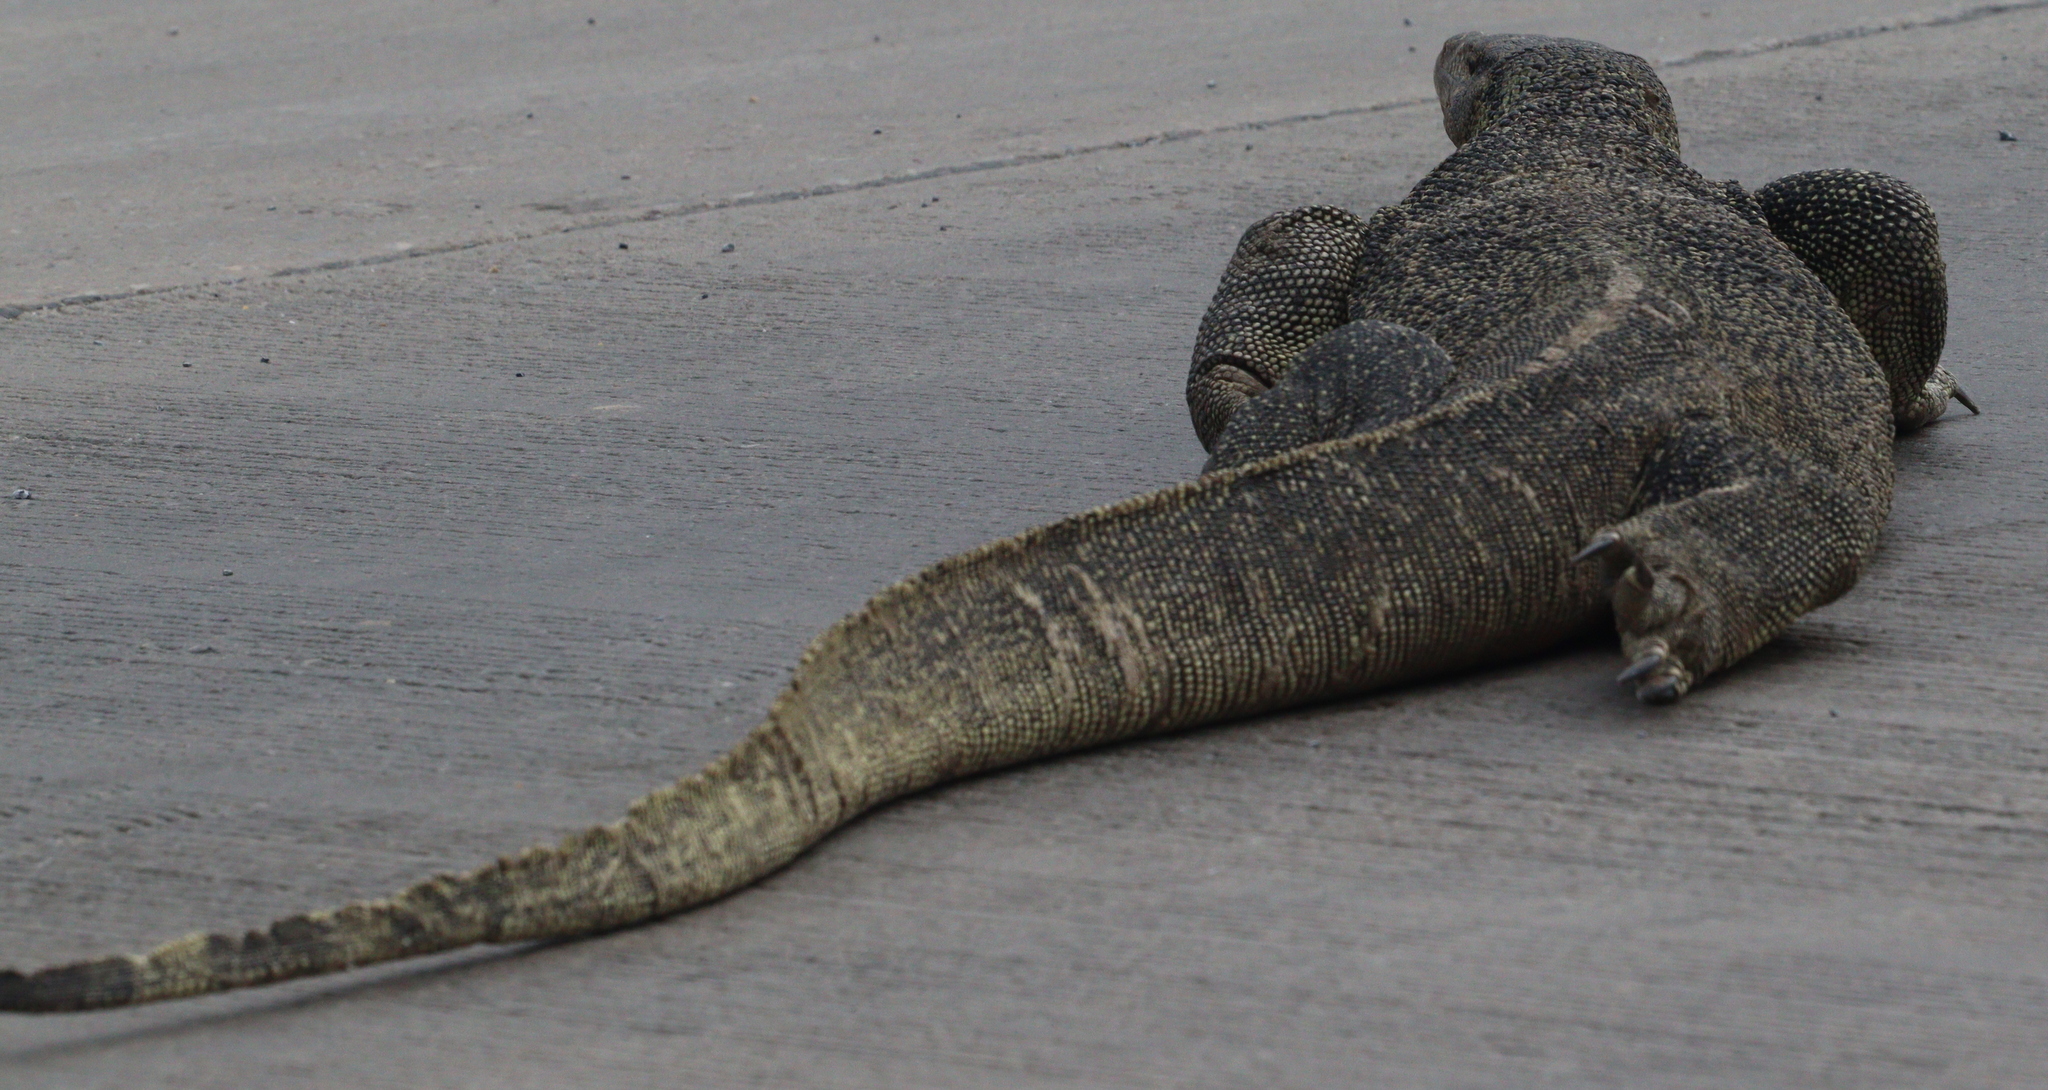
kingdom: Animalia
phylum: Chordata
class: Squamata
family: Varanidae
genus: Varanus
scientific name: Varanus salvator
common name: Common water monitor
